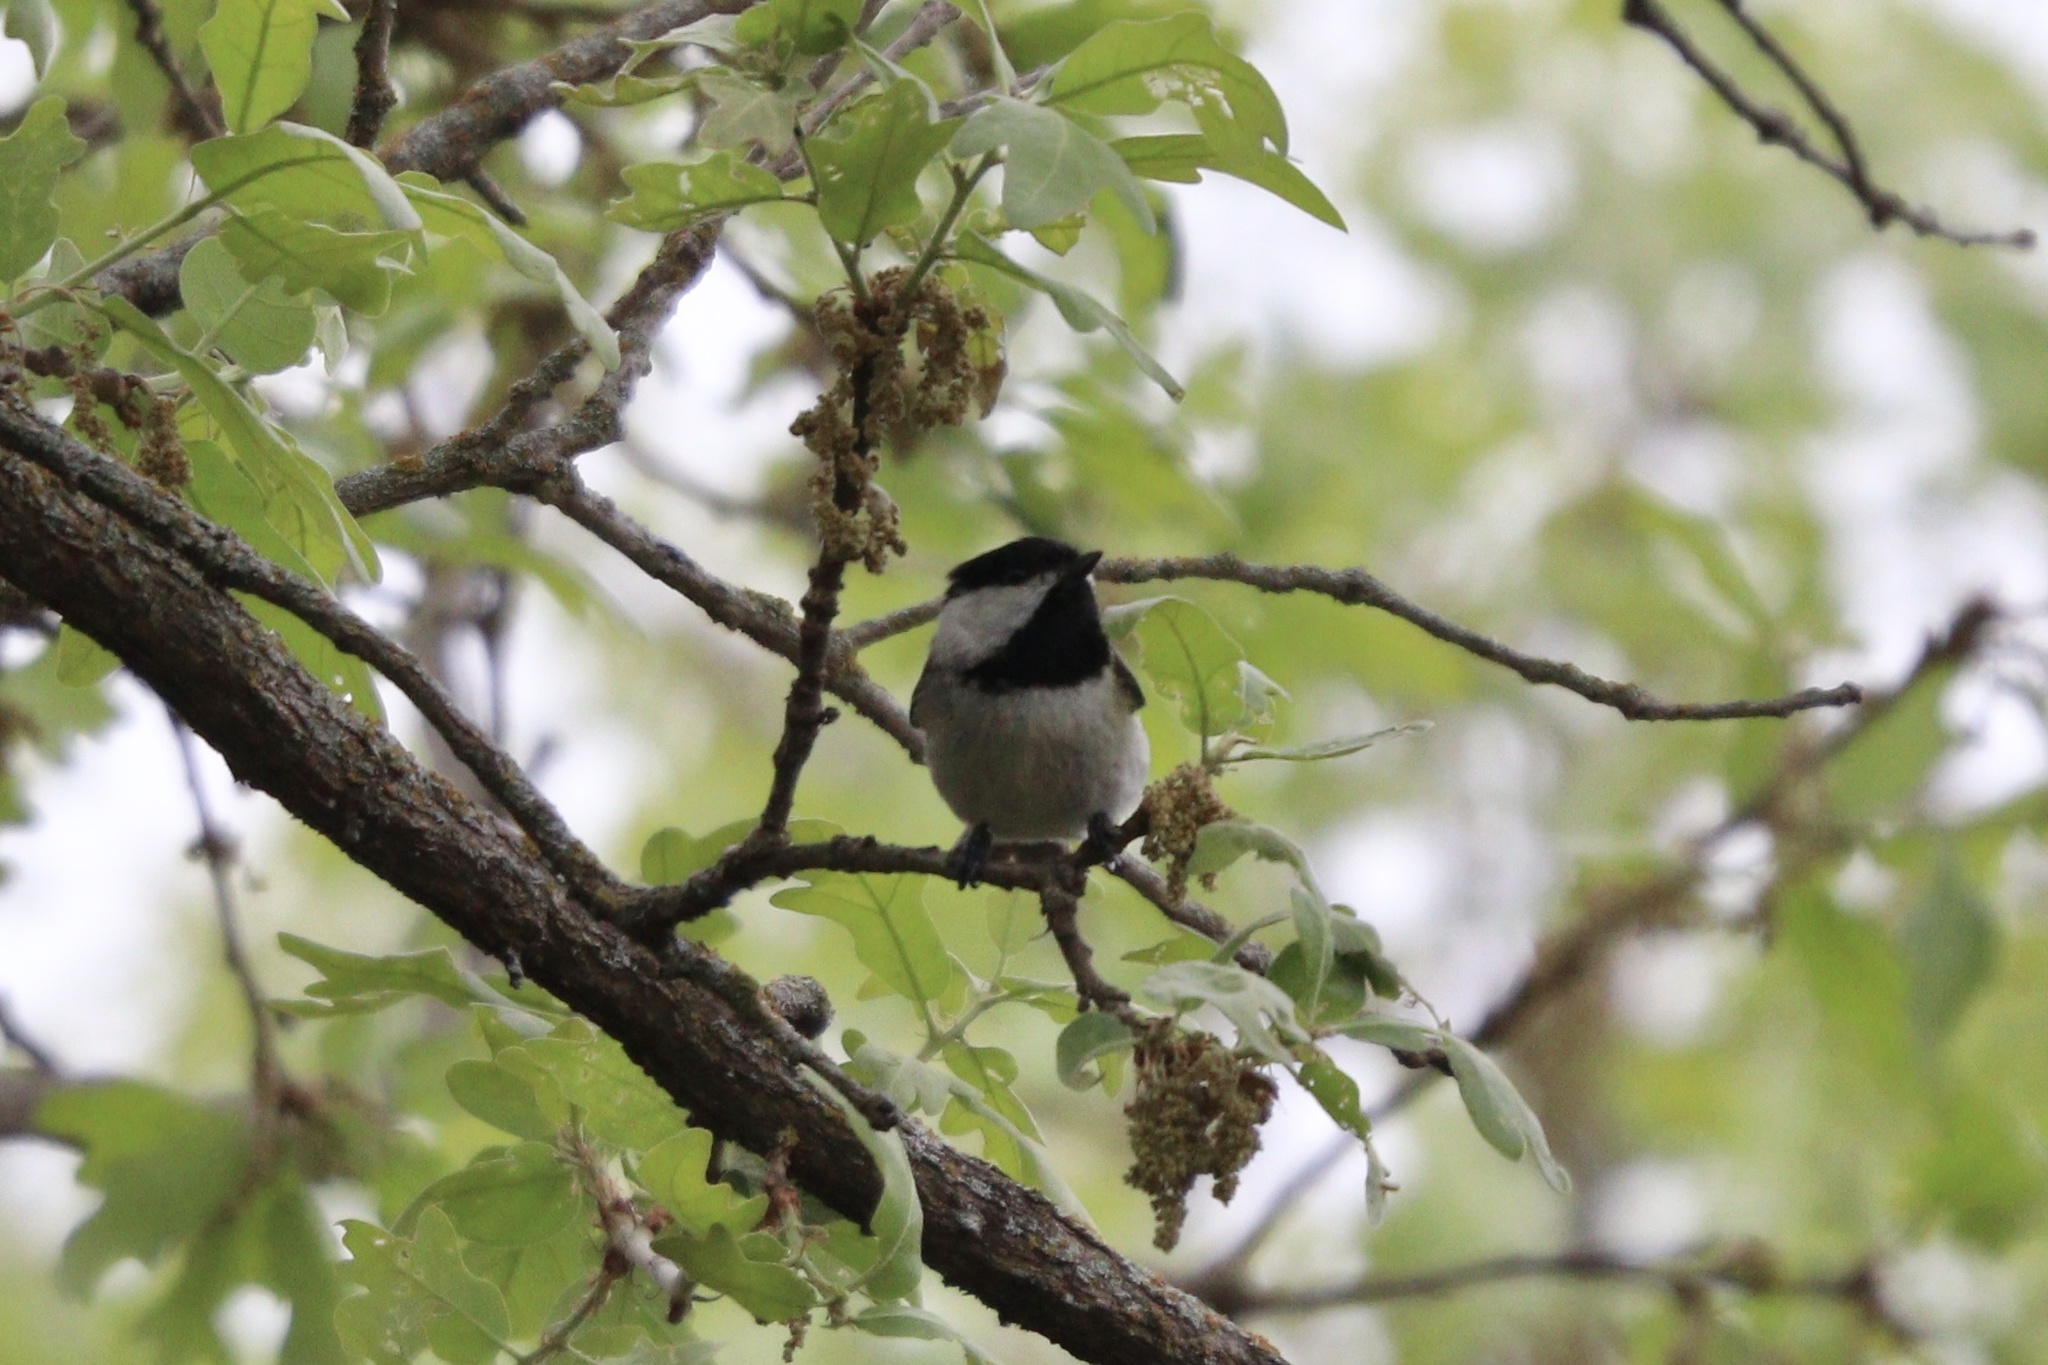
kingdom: Animalia
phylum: Chordata
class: Aves
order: Passeriformes
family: Paridae
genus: Poecile
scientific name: Poecile carolinensis
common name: Carolina chickadee
